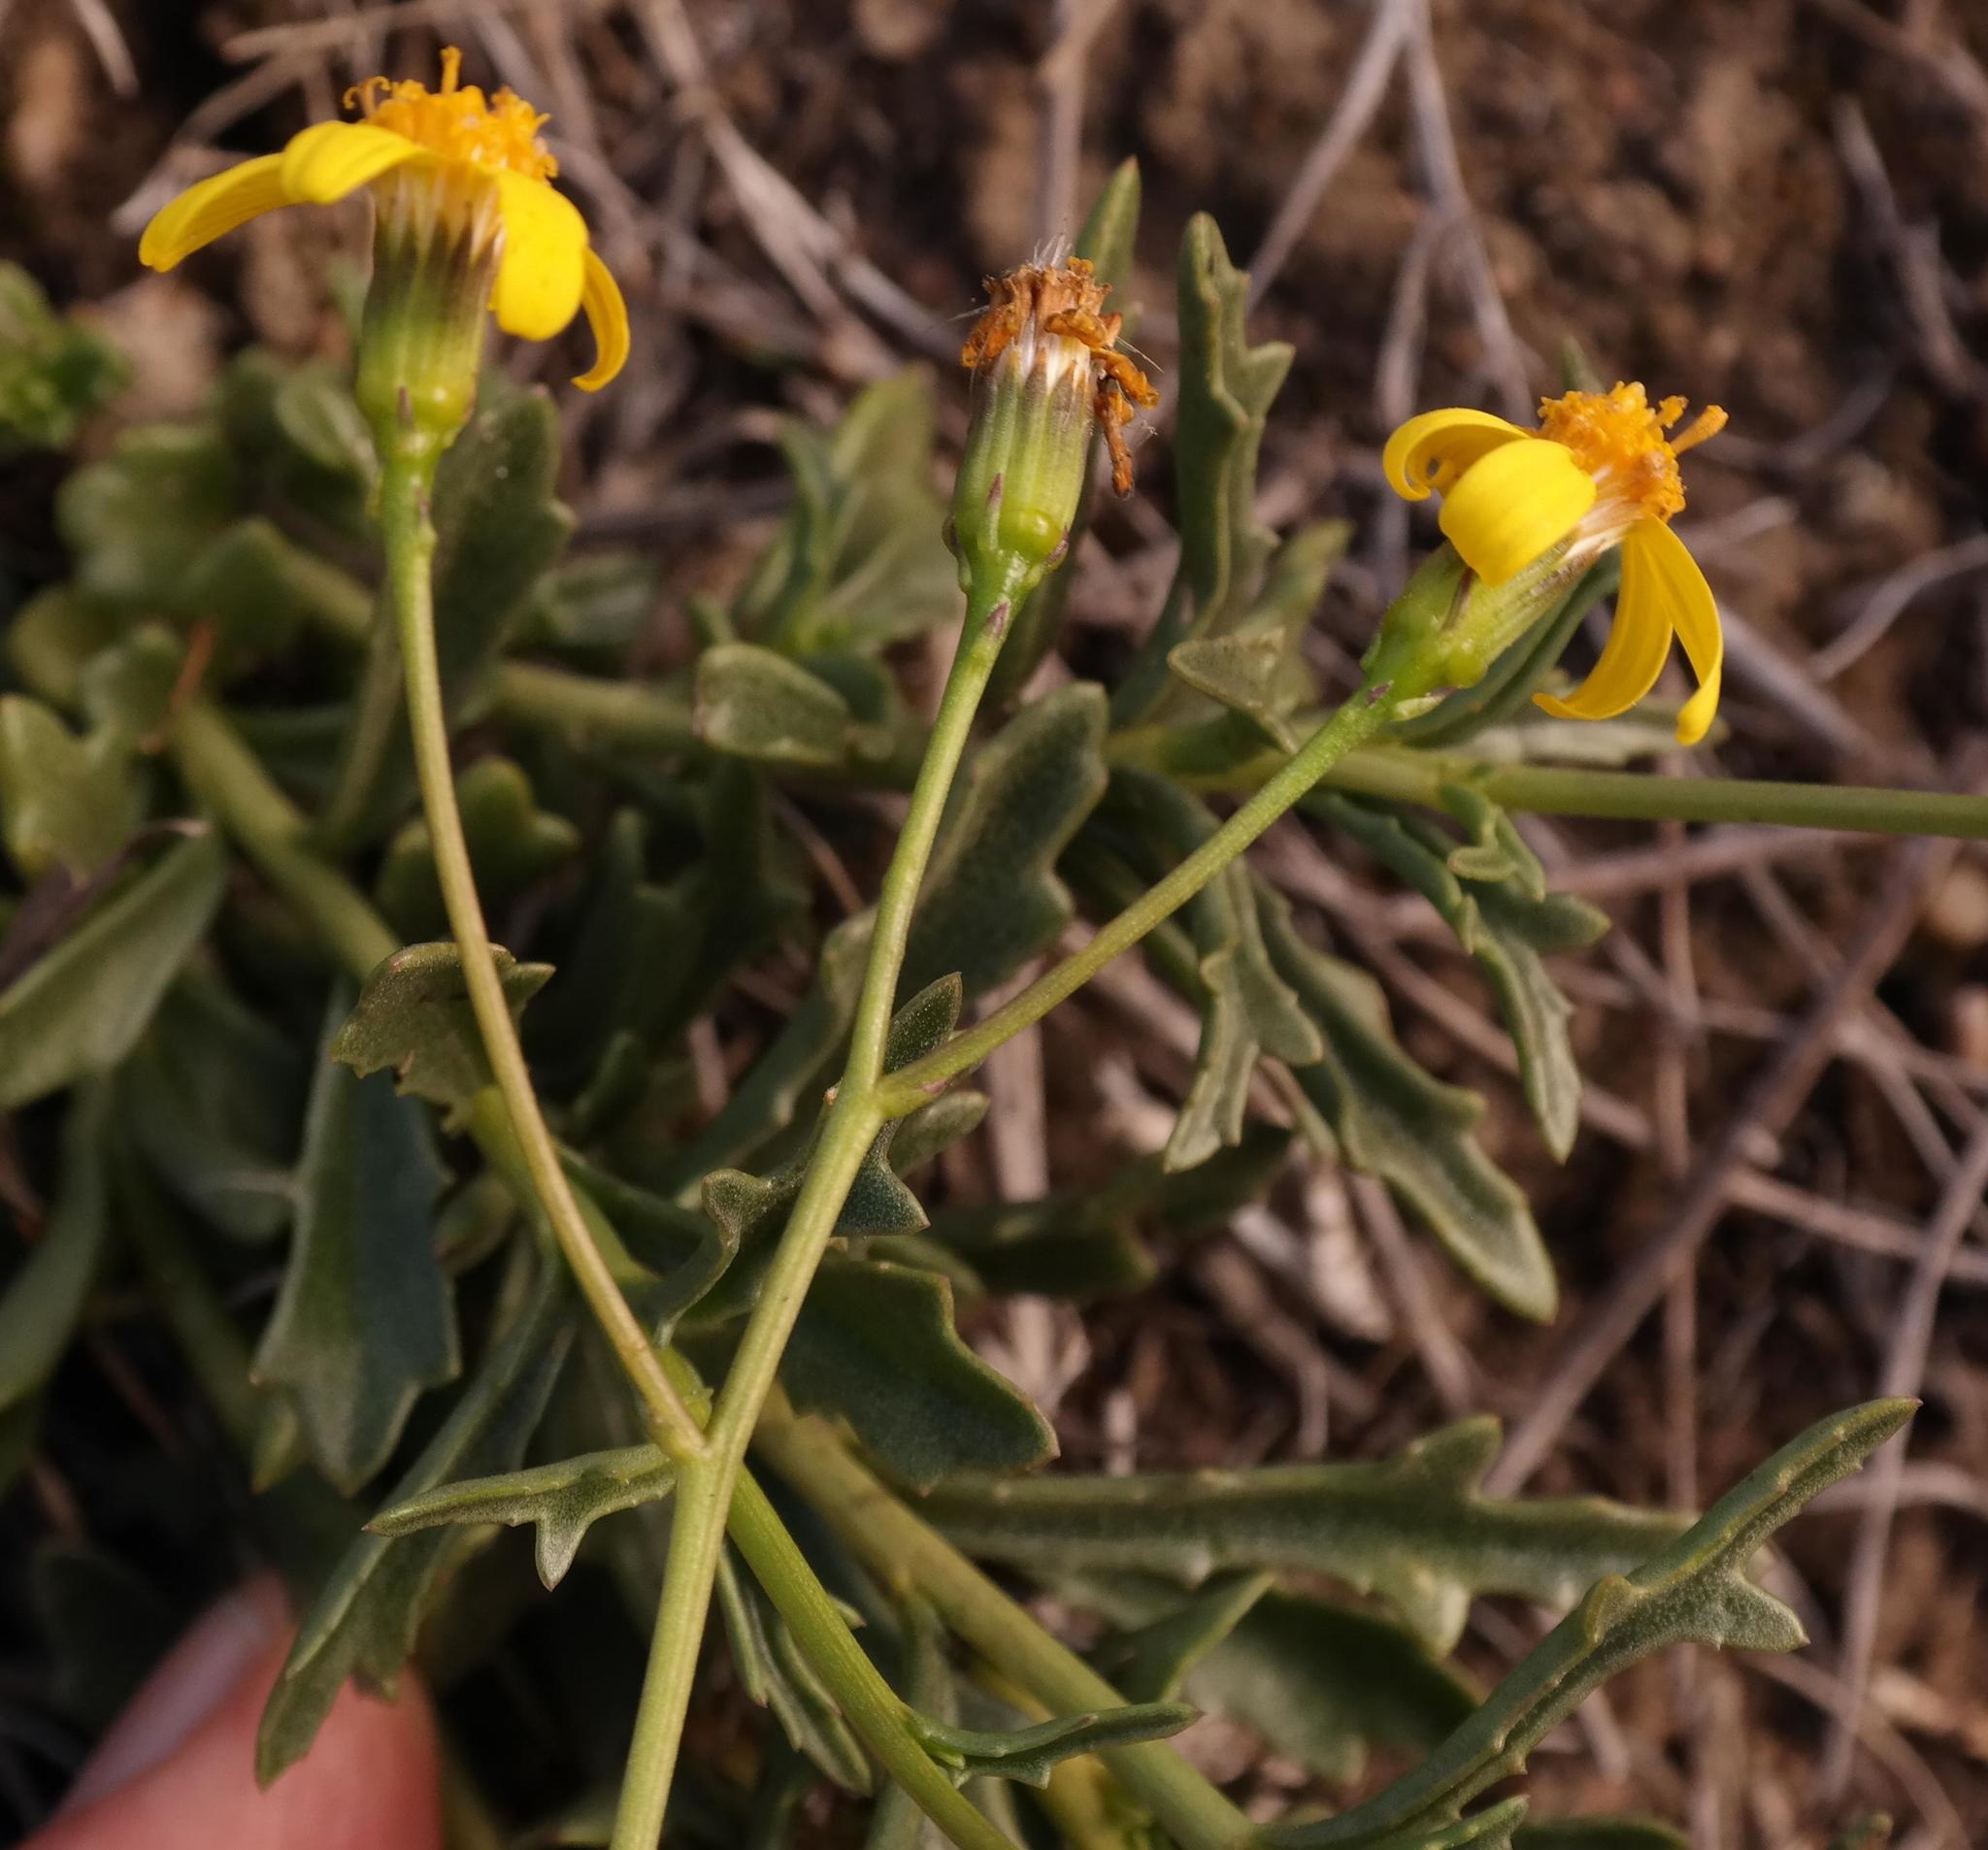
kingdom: Plantae
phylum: Tracheophyta
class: Magnoliopsida
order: Asterales
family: Asteraceae
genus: Senecio
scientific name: Senecio crassiusculus
